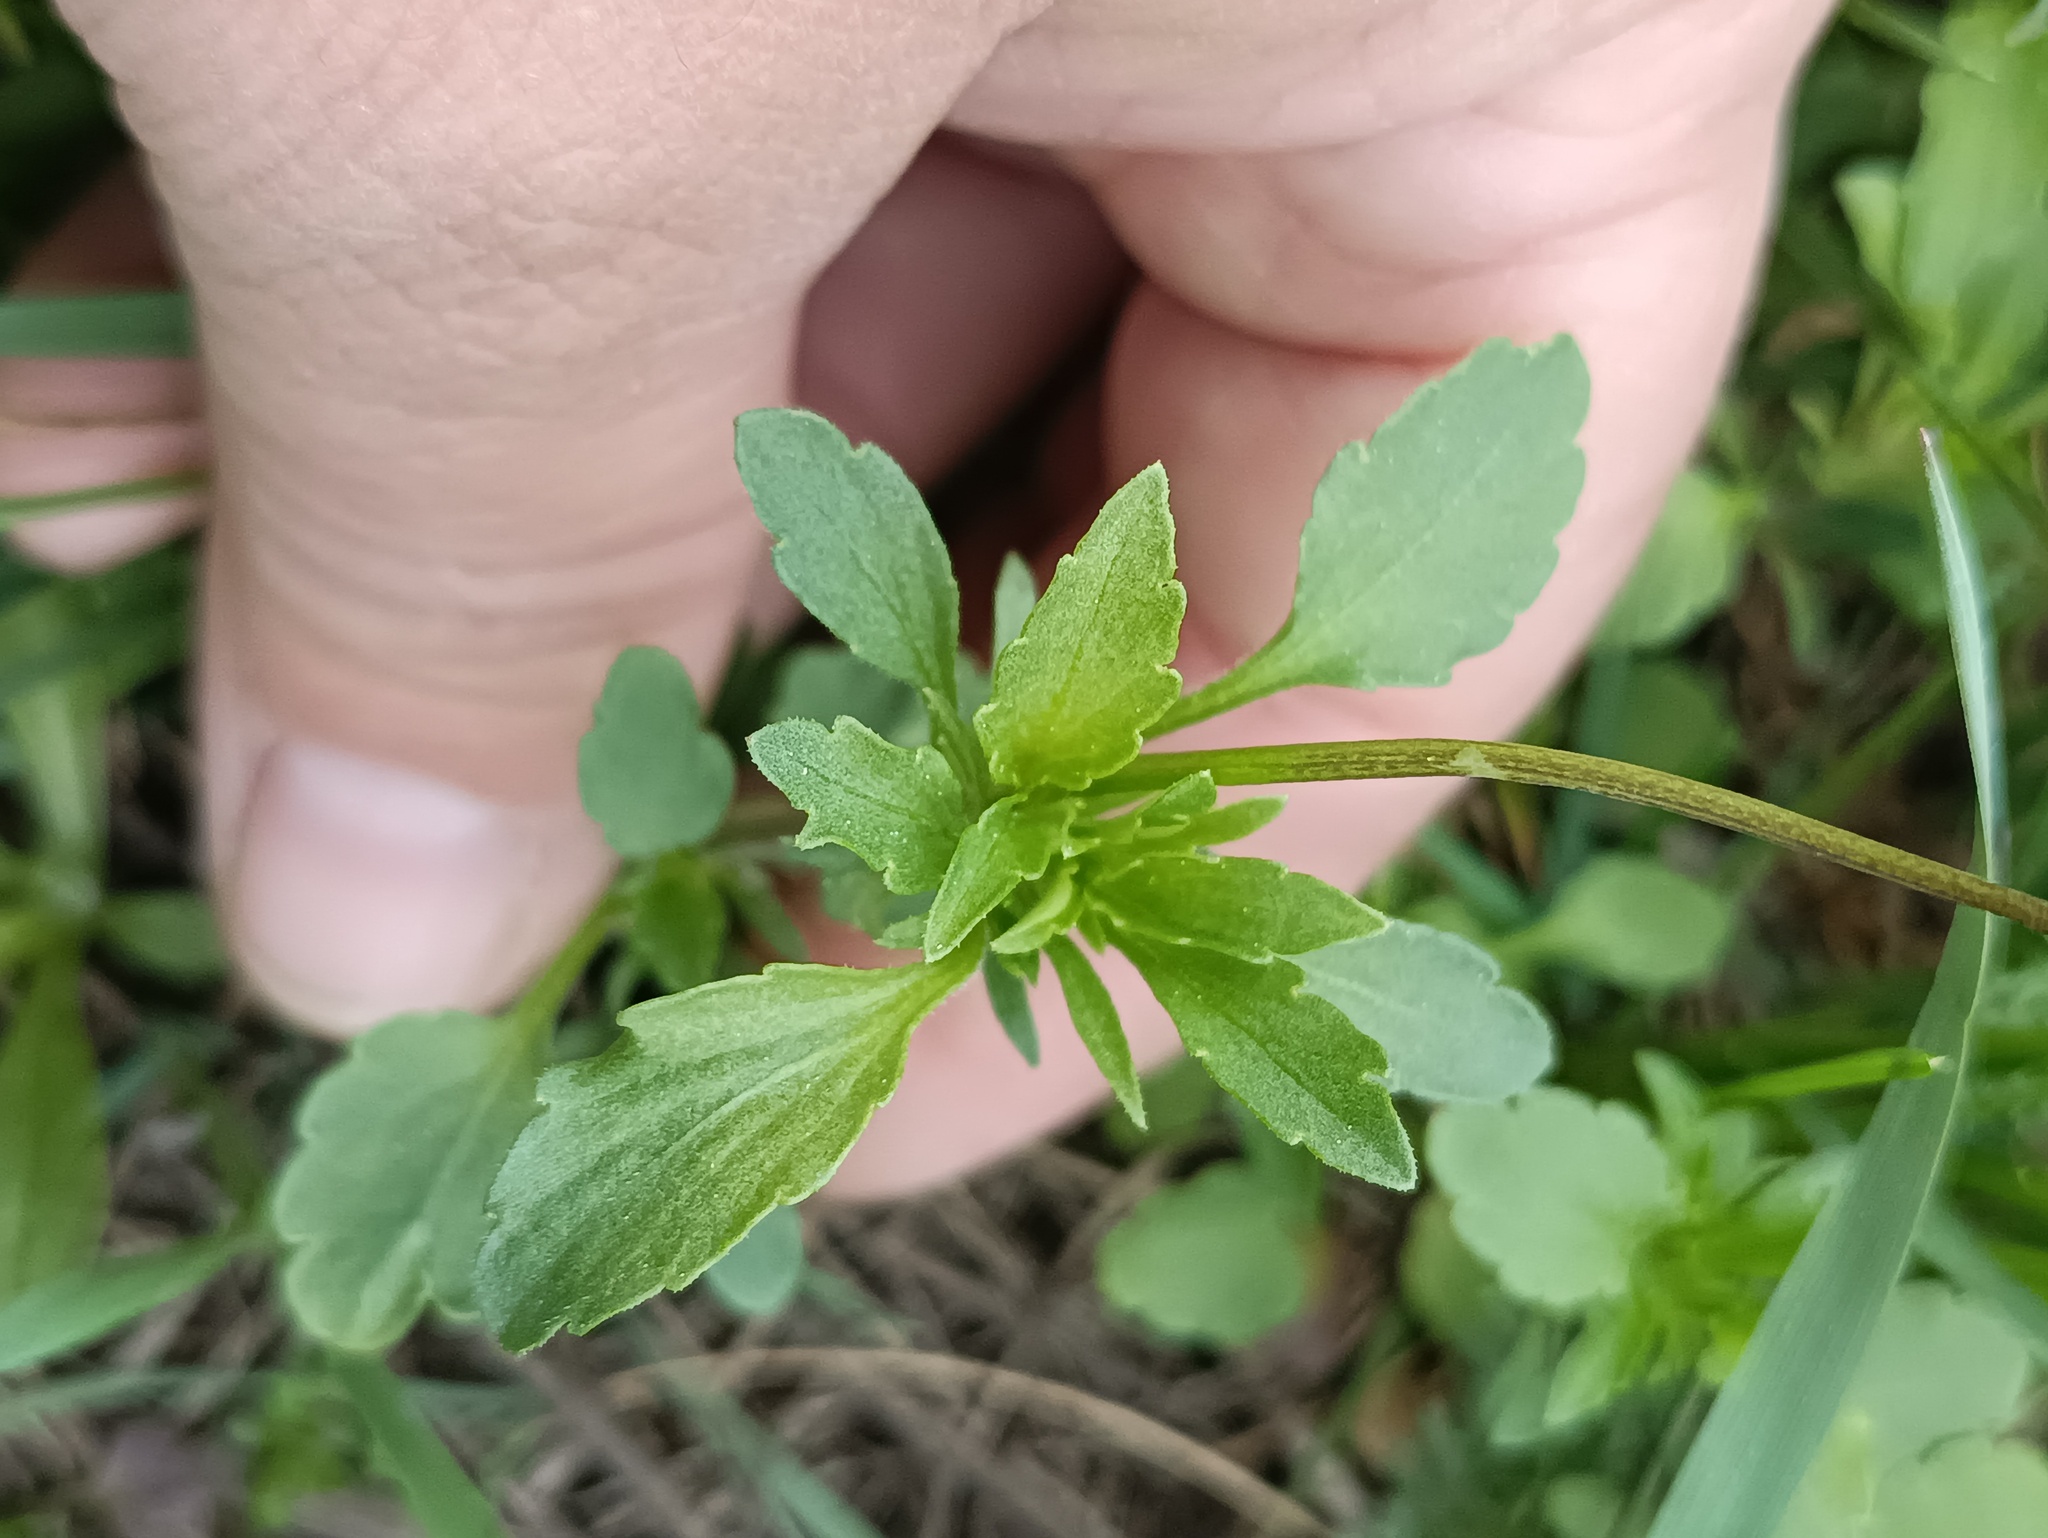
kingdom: Plantae
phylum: Tracheophyta
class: Magnoliopsida
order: Malpighiales
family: Violaceae
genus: Viola
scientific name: Viola arvensis
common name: Field pansy
